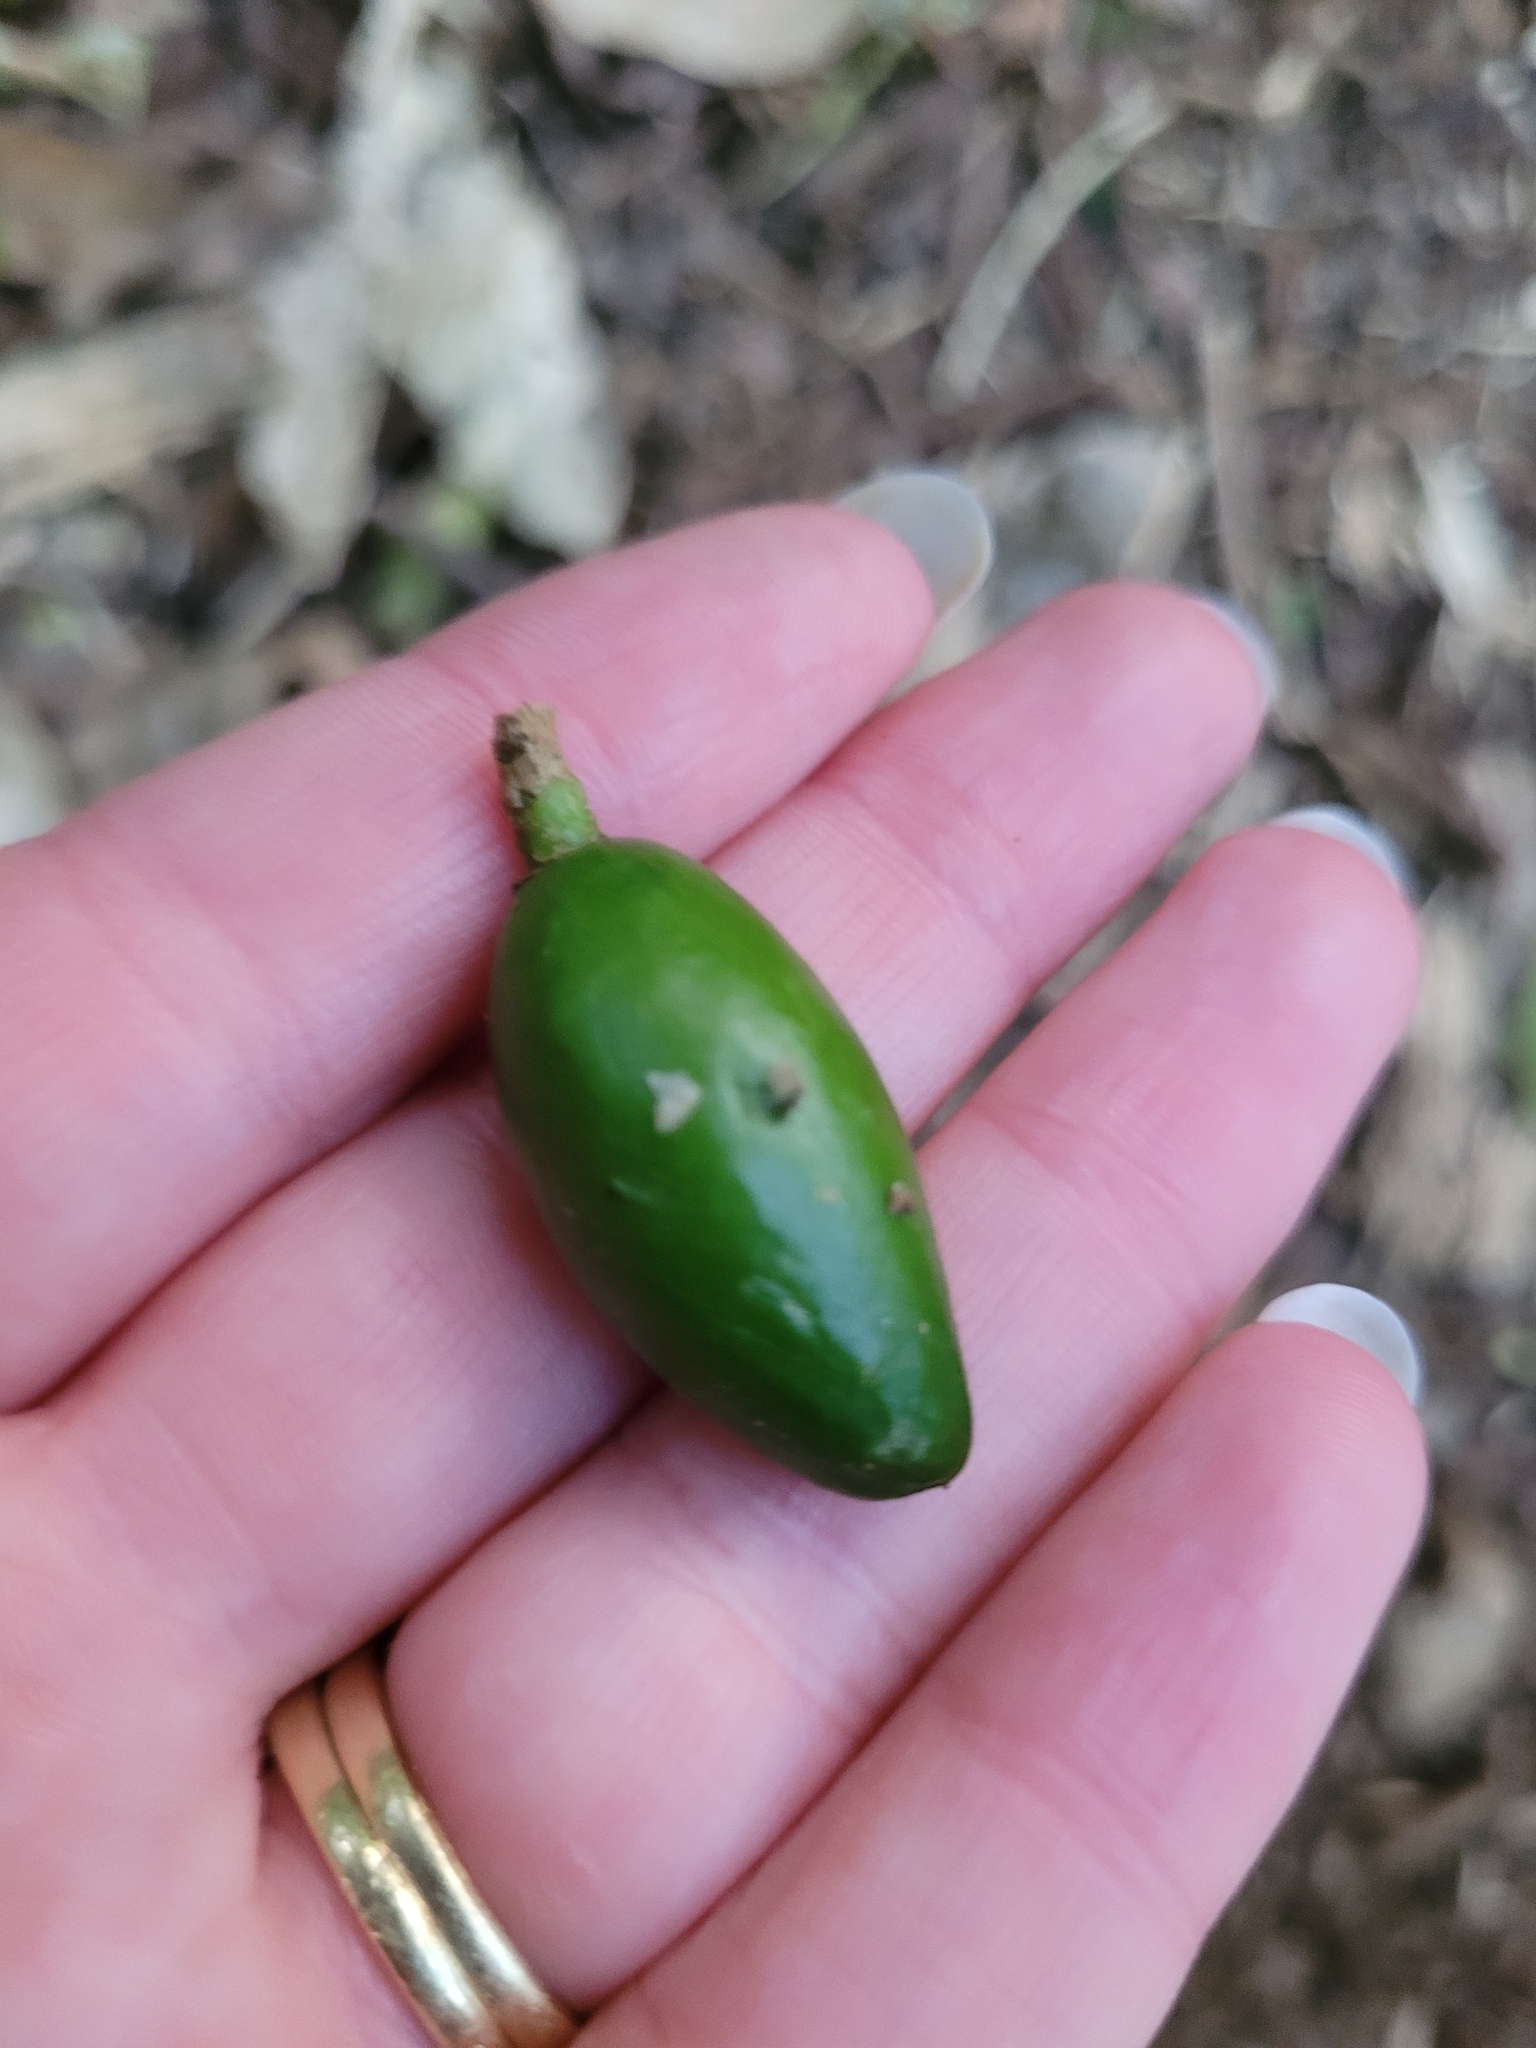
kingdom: Plantae
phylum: Tracheophyta
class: Magnoliopsida
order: Cucurbitales
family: Corynocarpaceae
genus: Corynocarpus
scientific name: Corynocarpus laevigatus
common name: New zealand laurel
